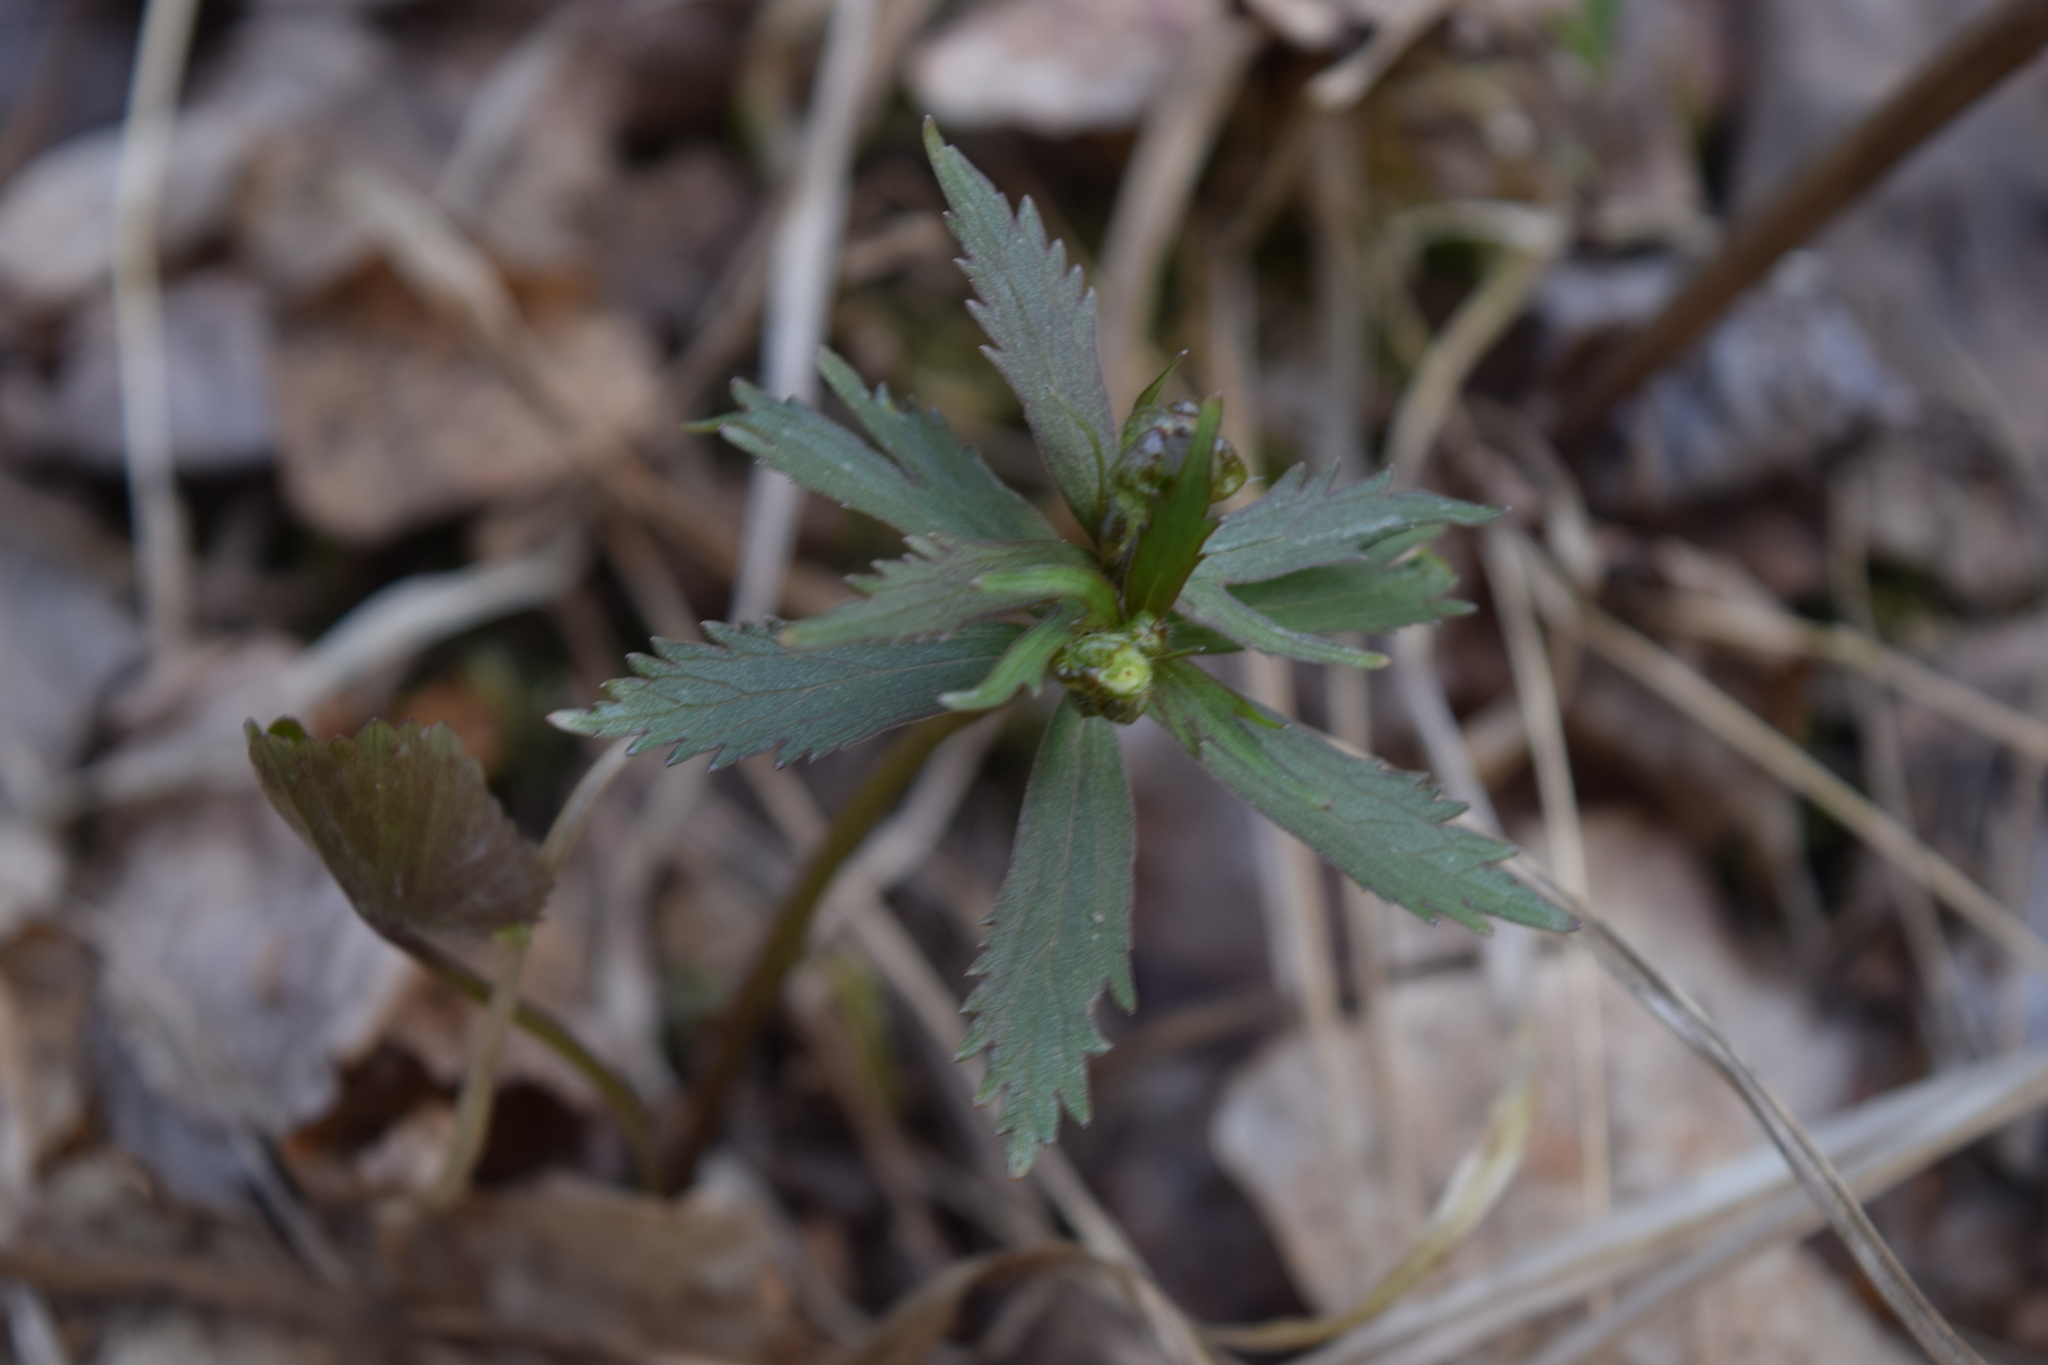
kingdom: Plantae
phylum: Tracheophyta
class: Magnoliopsida
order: Ranunculales
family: Ranunculaceae
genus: Ranunculus
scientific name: Ranunculus cassubicus
